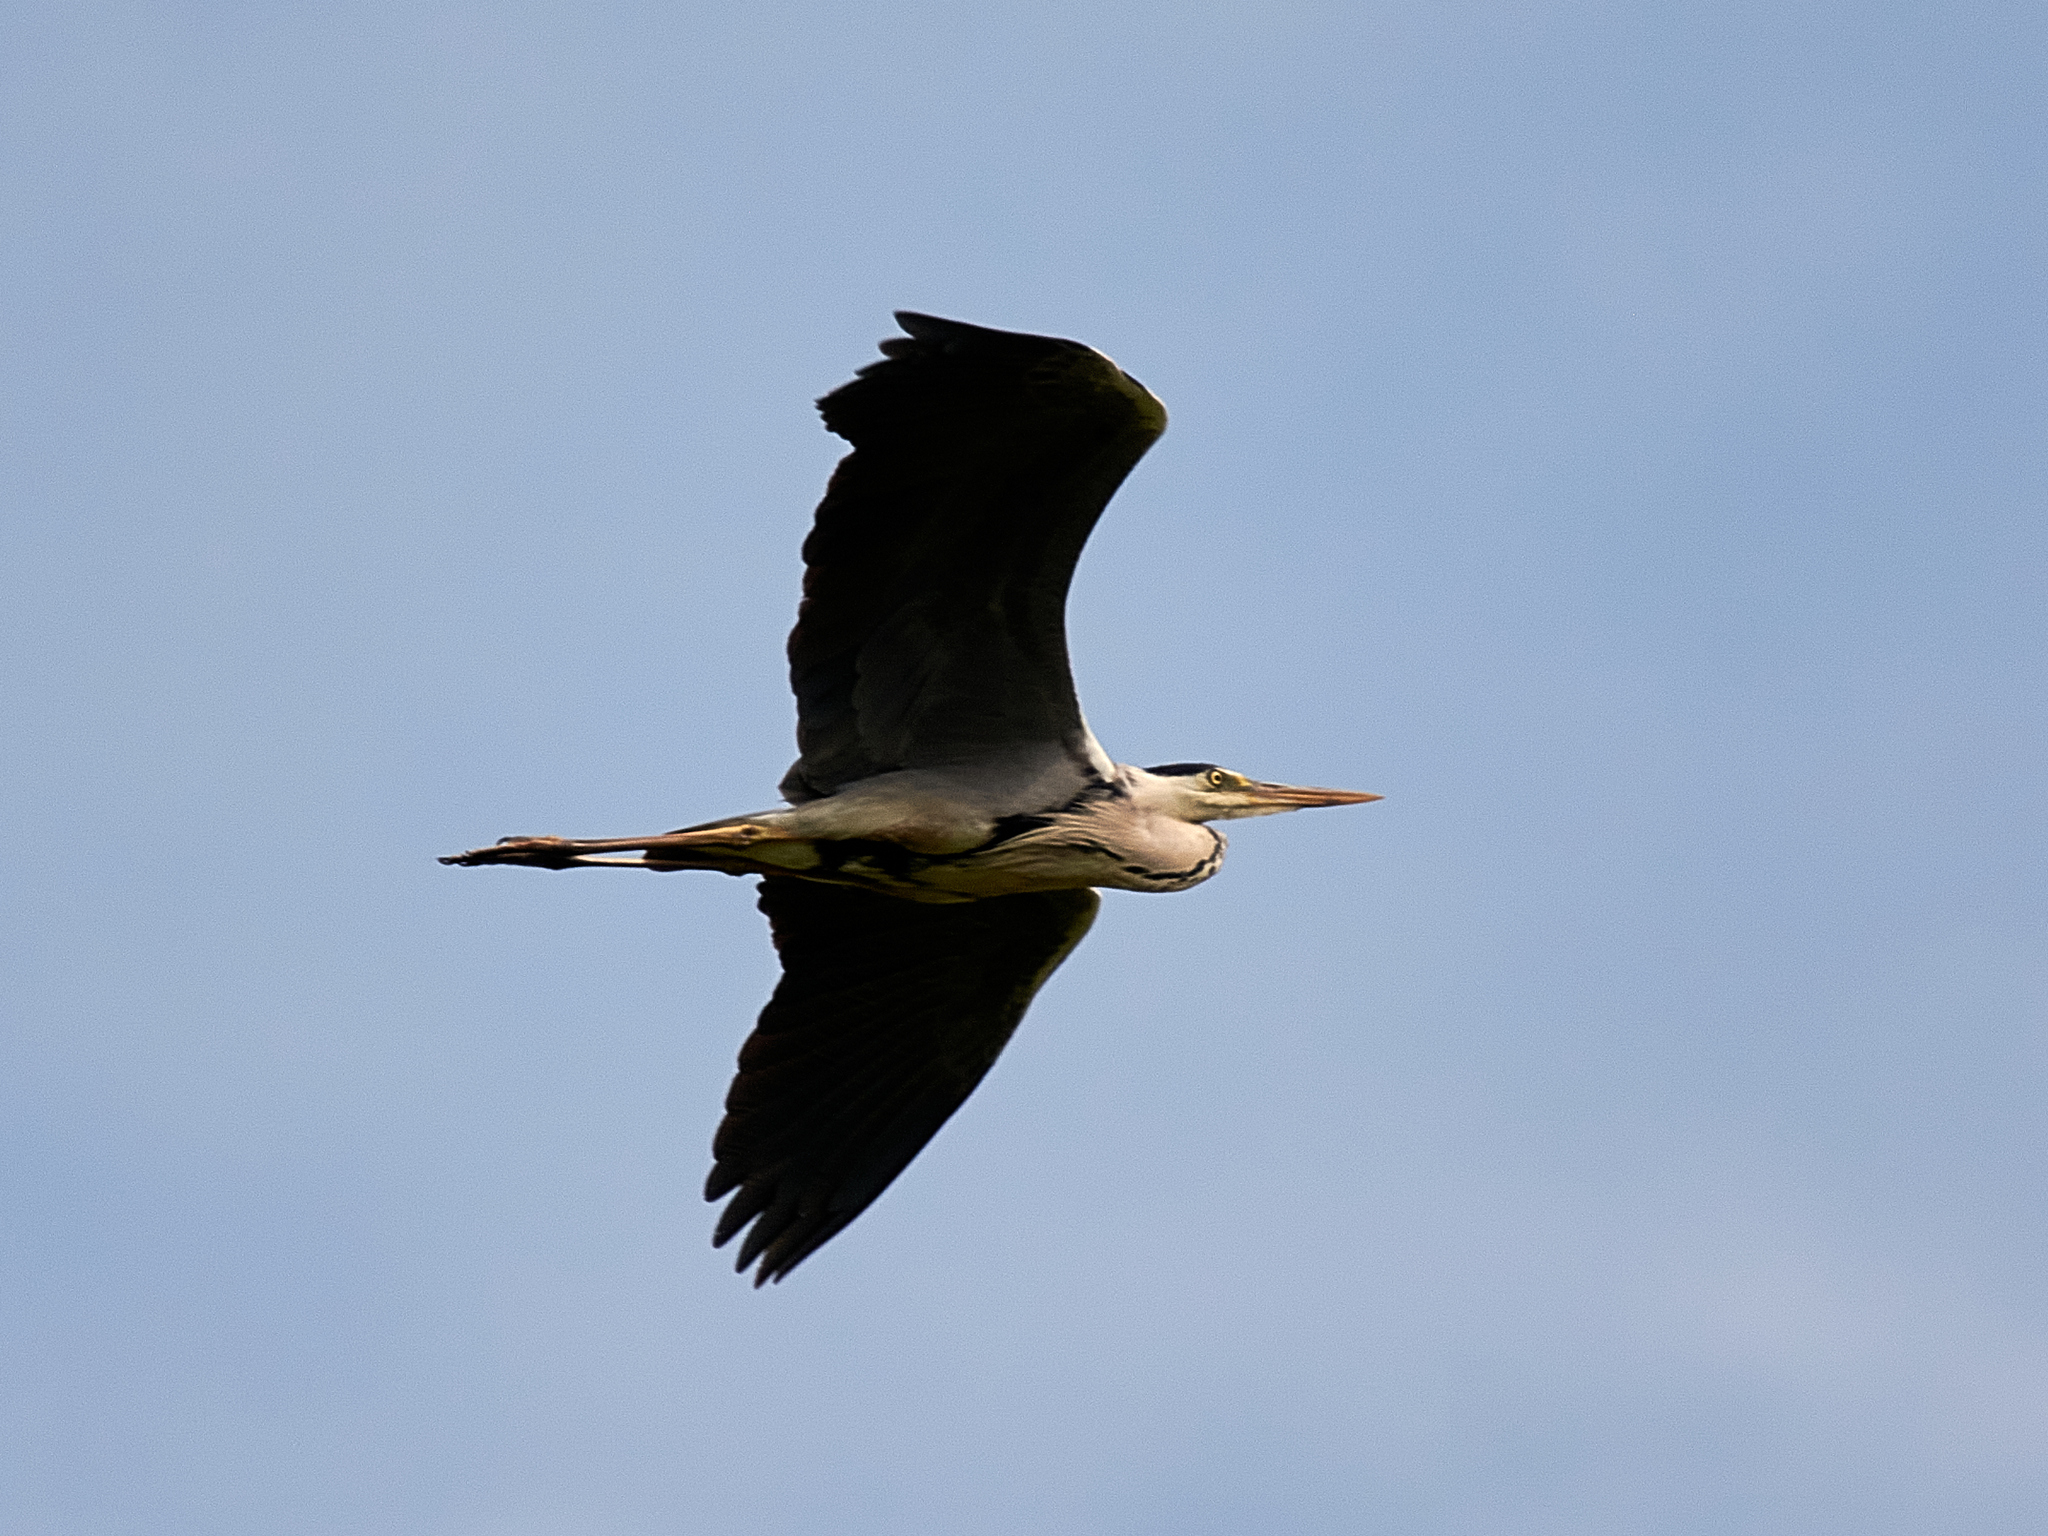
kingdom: Animalia
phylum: Chordata
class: Aves
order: Pelecaniformes
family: Ardeidae
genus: Ardea
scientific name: Ardea cinerea
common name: Grey heron
